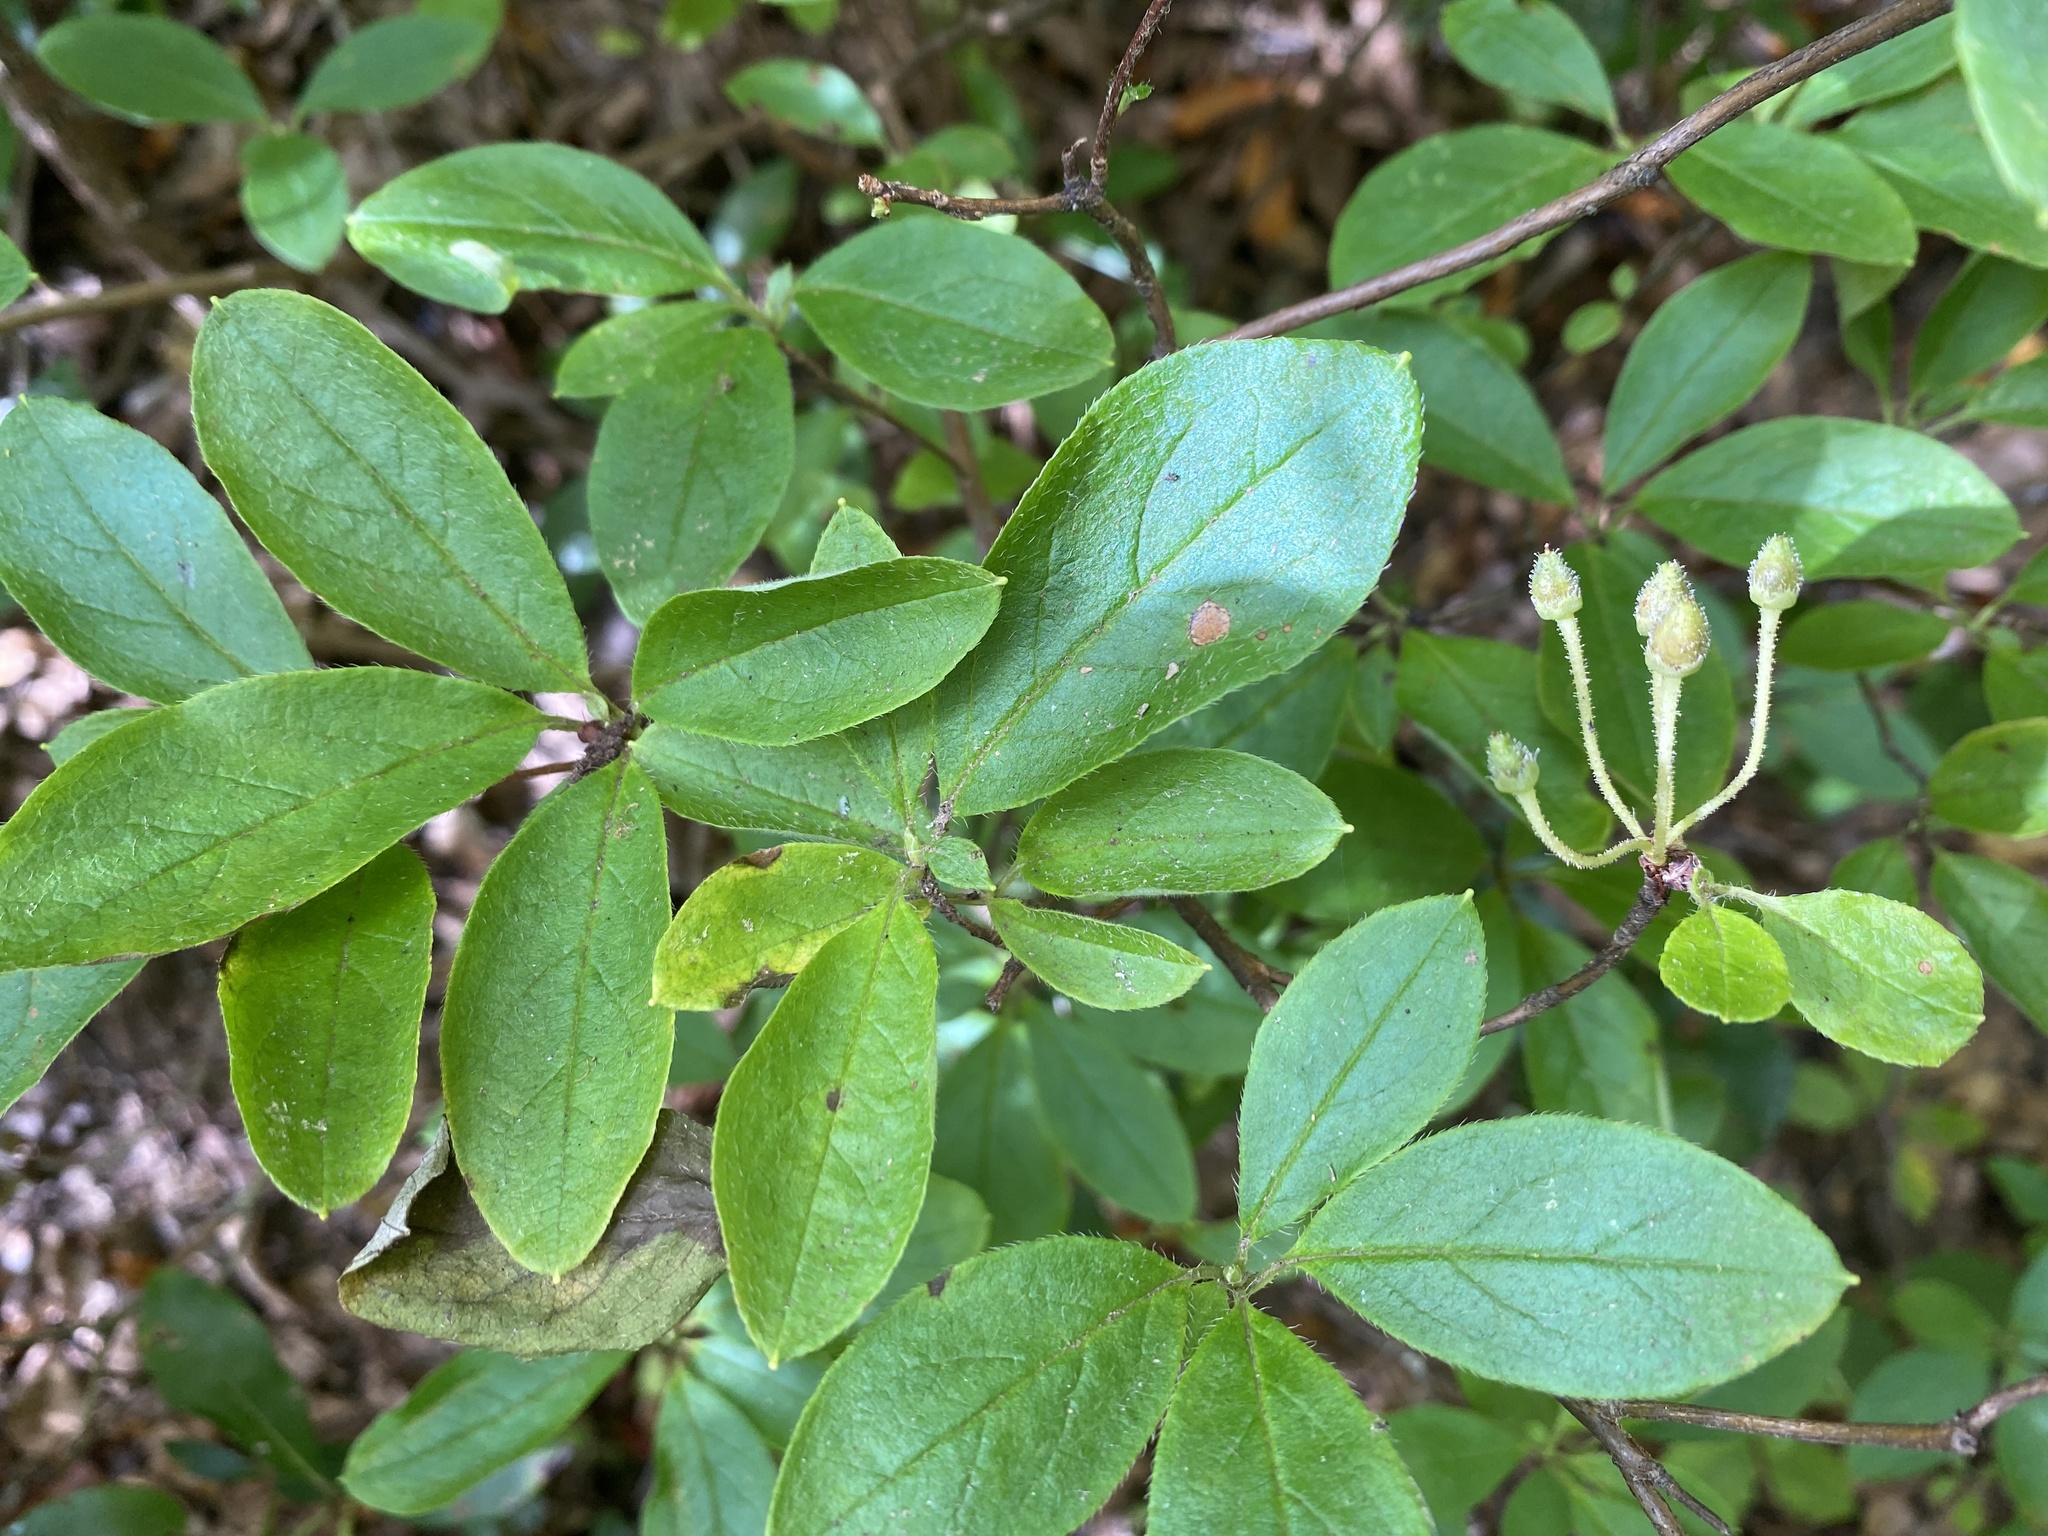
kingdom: Plantae
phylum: Tracheophyta
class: Magnoliopsida
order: Ericales
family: Ericaceae
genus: Rhododendron
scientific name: Rhododendron pilosum
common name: Hairy minniebush
